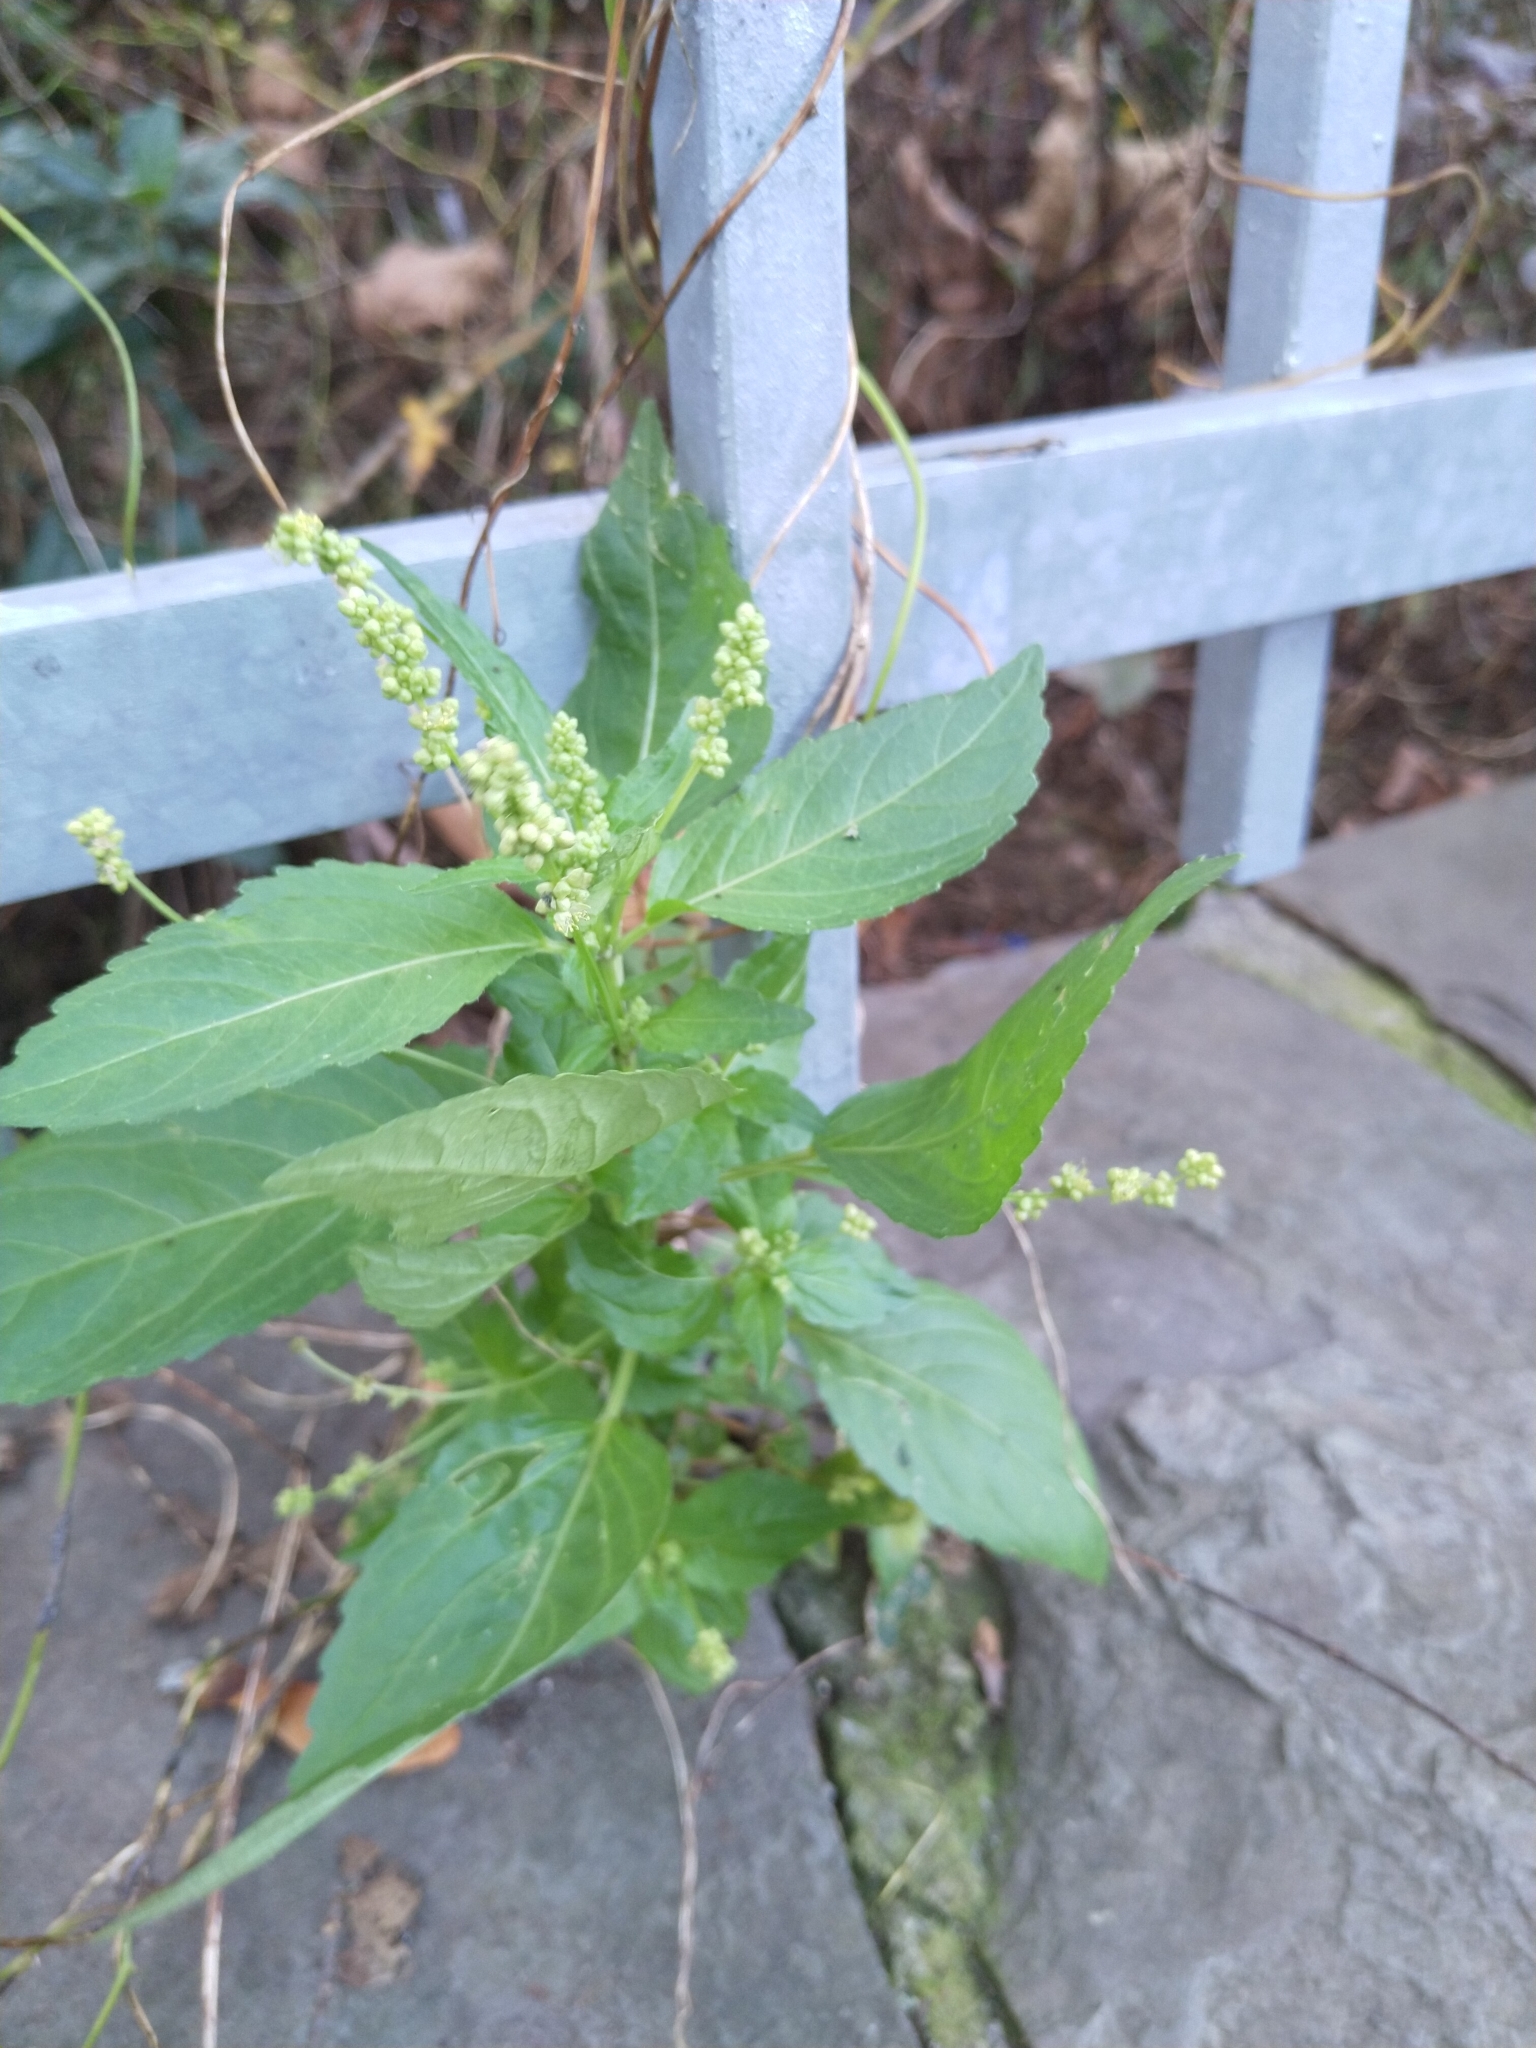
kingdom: Plantae
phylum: Tracheophyta
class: Magnoliopsida
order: Malpighiales
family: Euphorbiaceae
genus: Mercurialis
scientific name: Mercurialis annua
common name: Annual mercury
